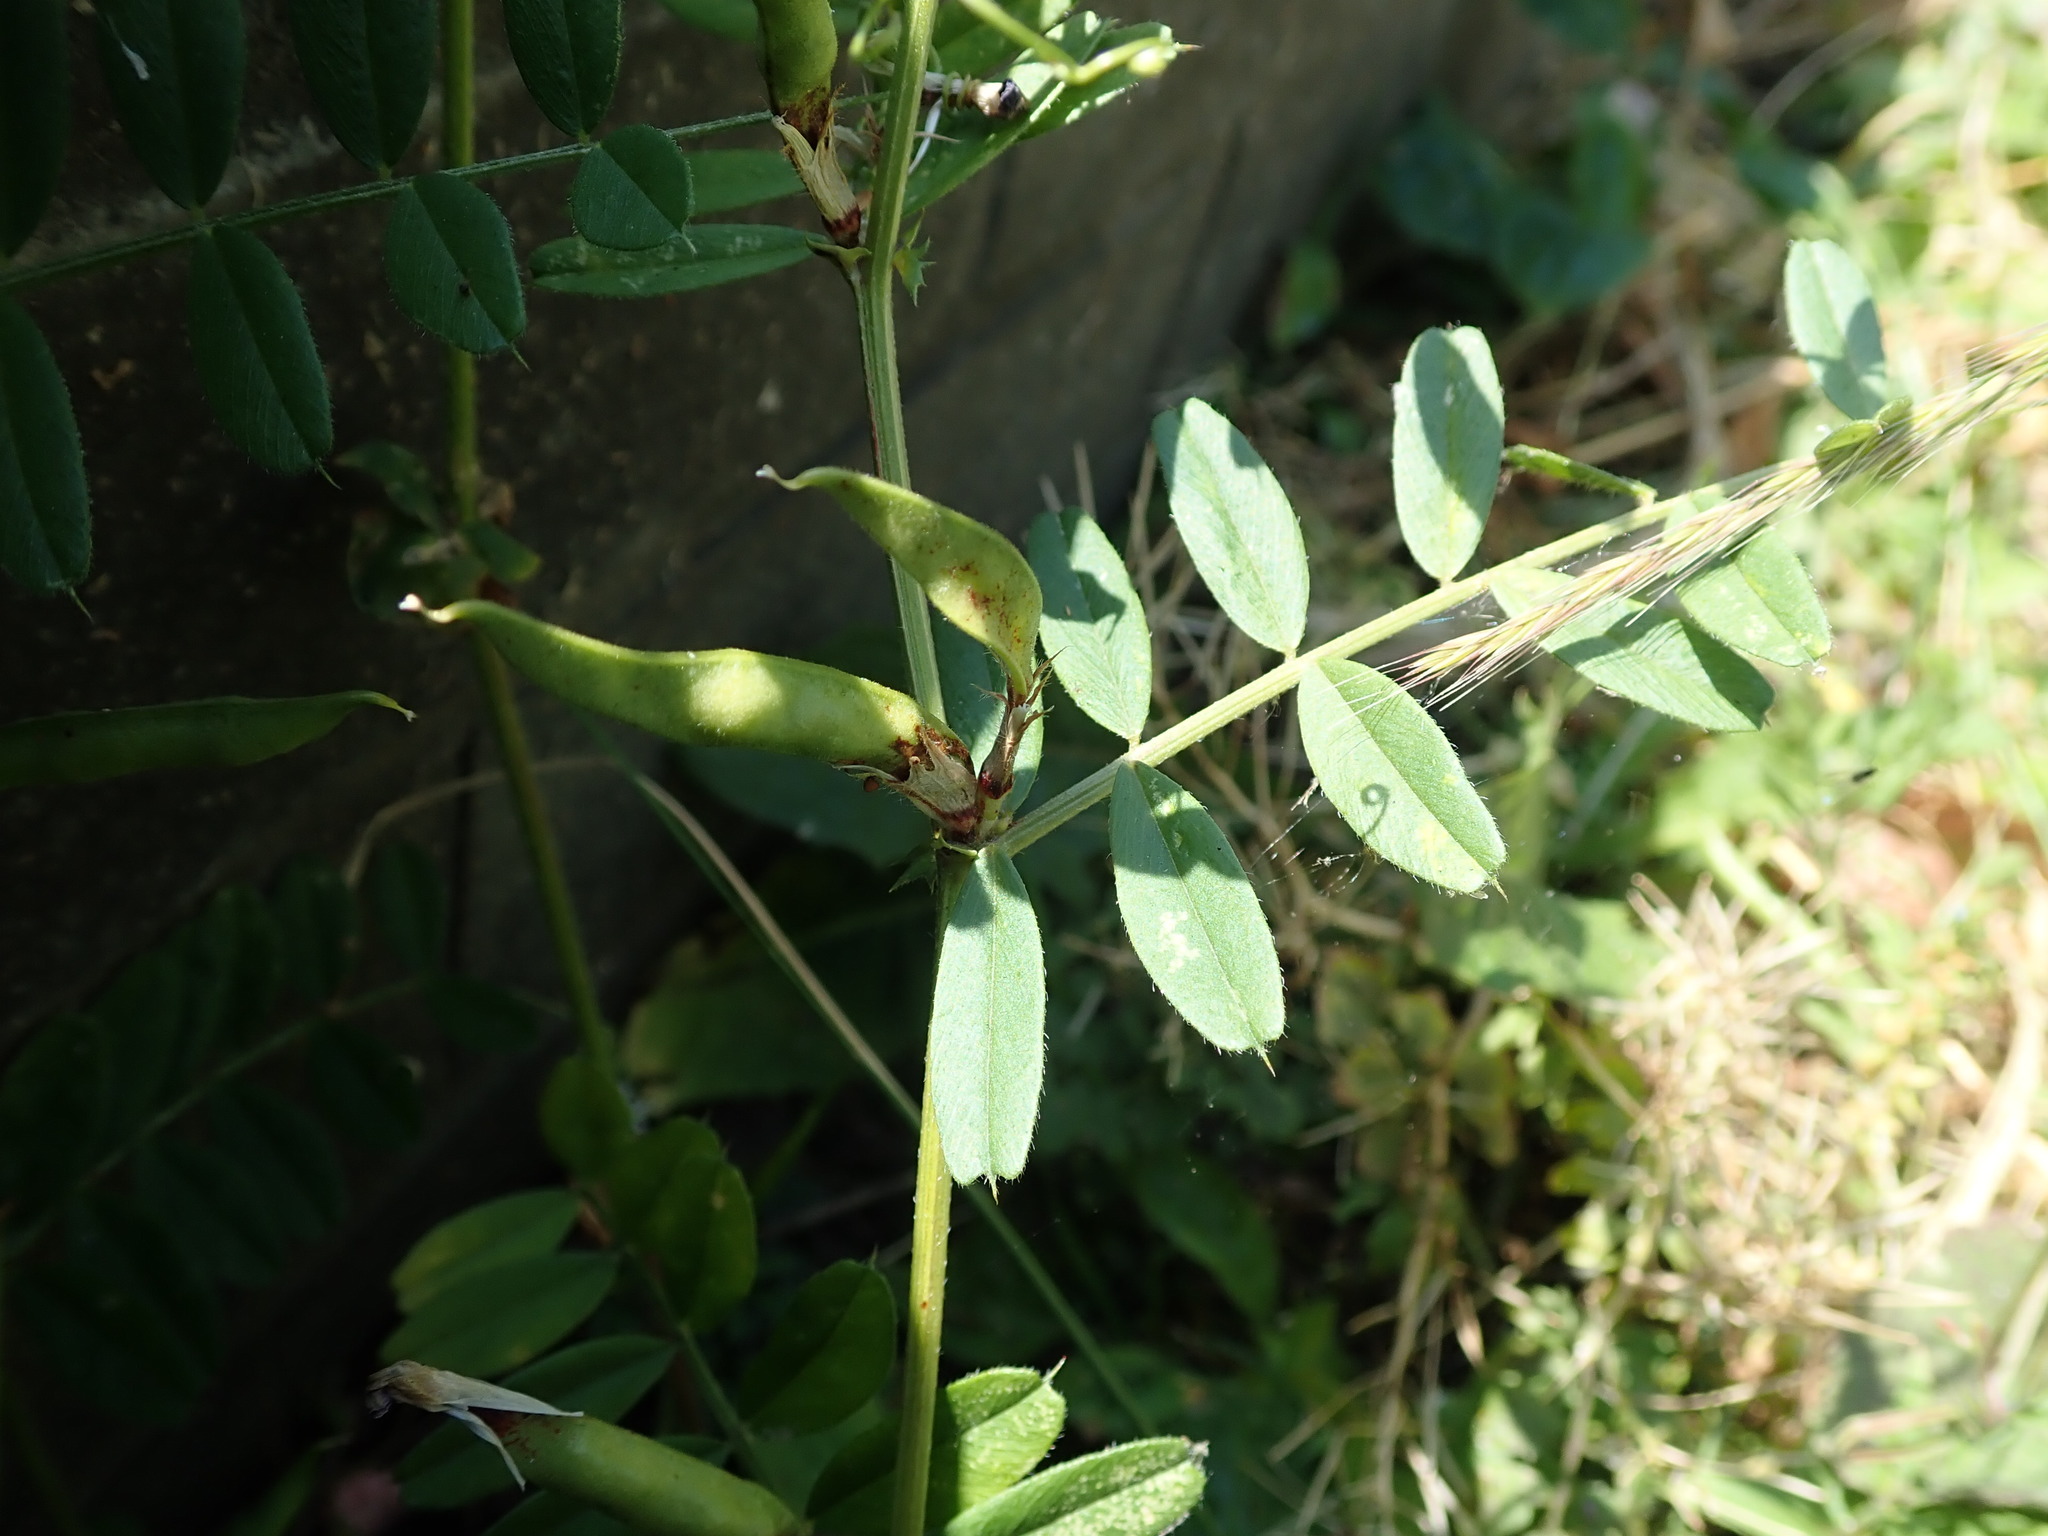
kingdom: Plantae
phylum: Tracheophyta
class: Magnoliopsida
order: Fabales
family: Fabaceae
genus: Vicia
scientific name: Vicia sativa
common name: Garden vetch
